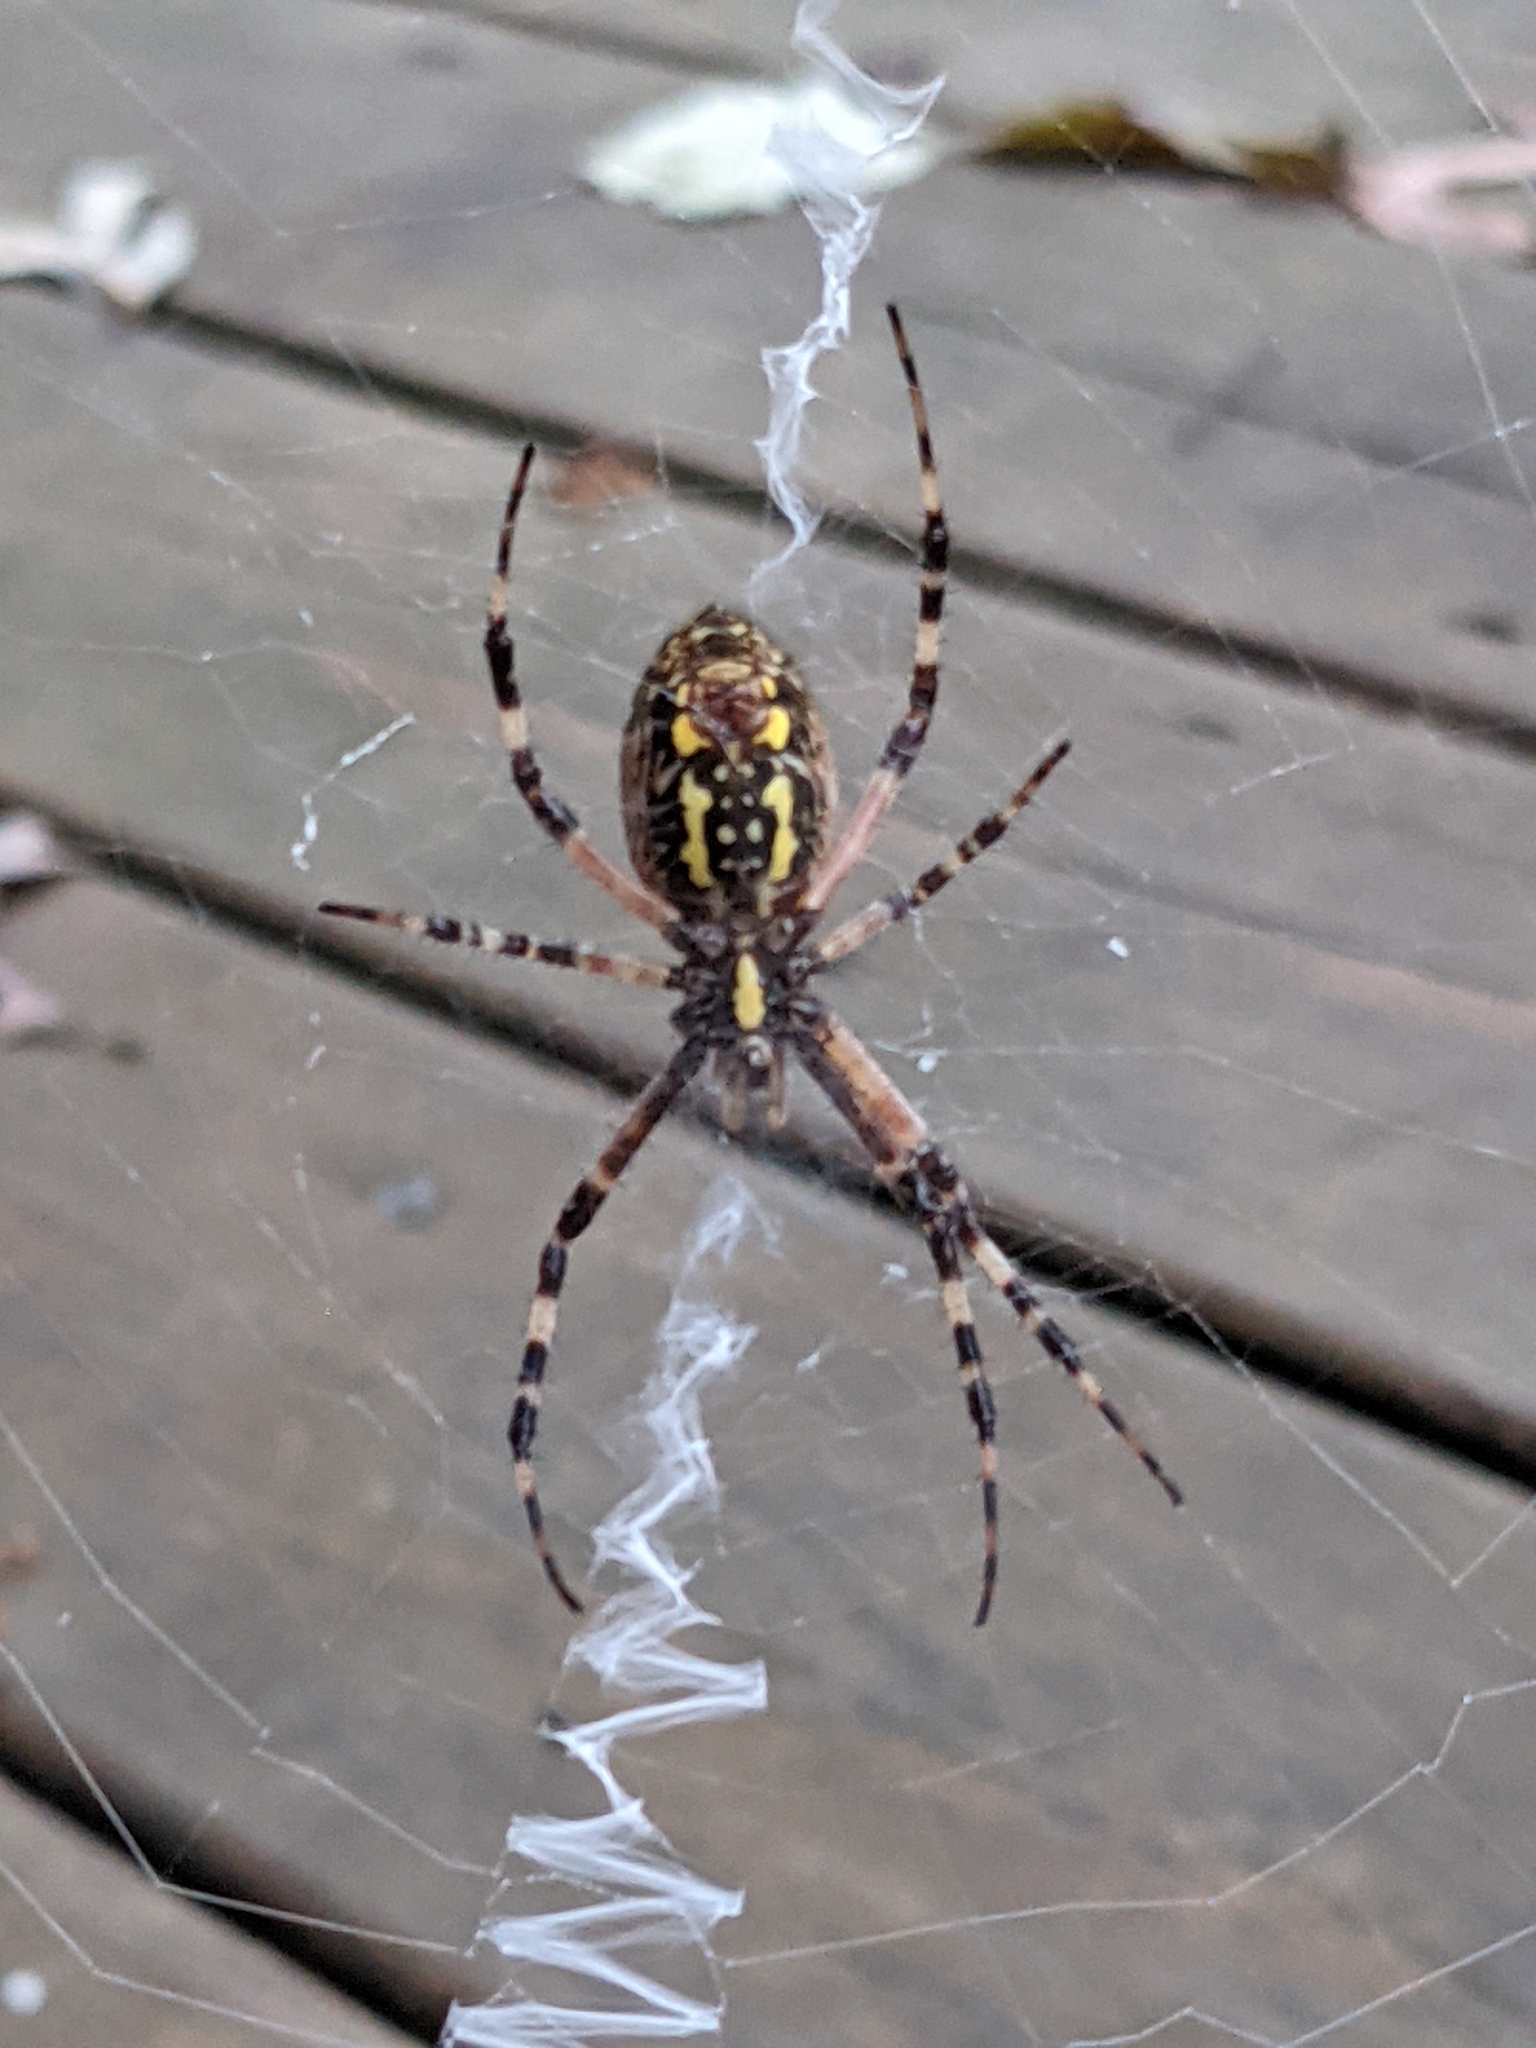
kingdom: Animalia
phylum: Arthropoda
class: Arachnida
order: Araneae
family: Araneidae
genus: Argiope
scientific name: Argiope aurantia
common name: Orb weavers
